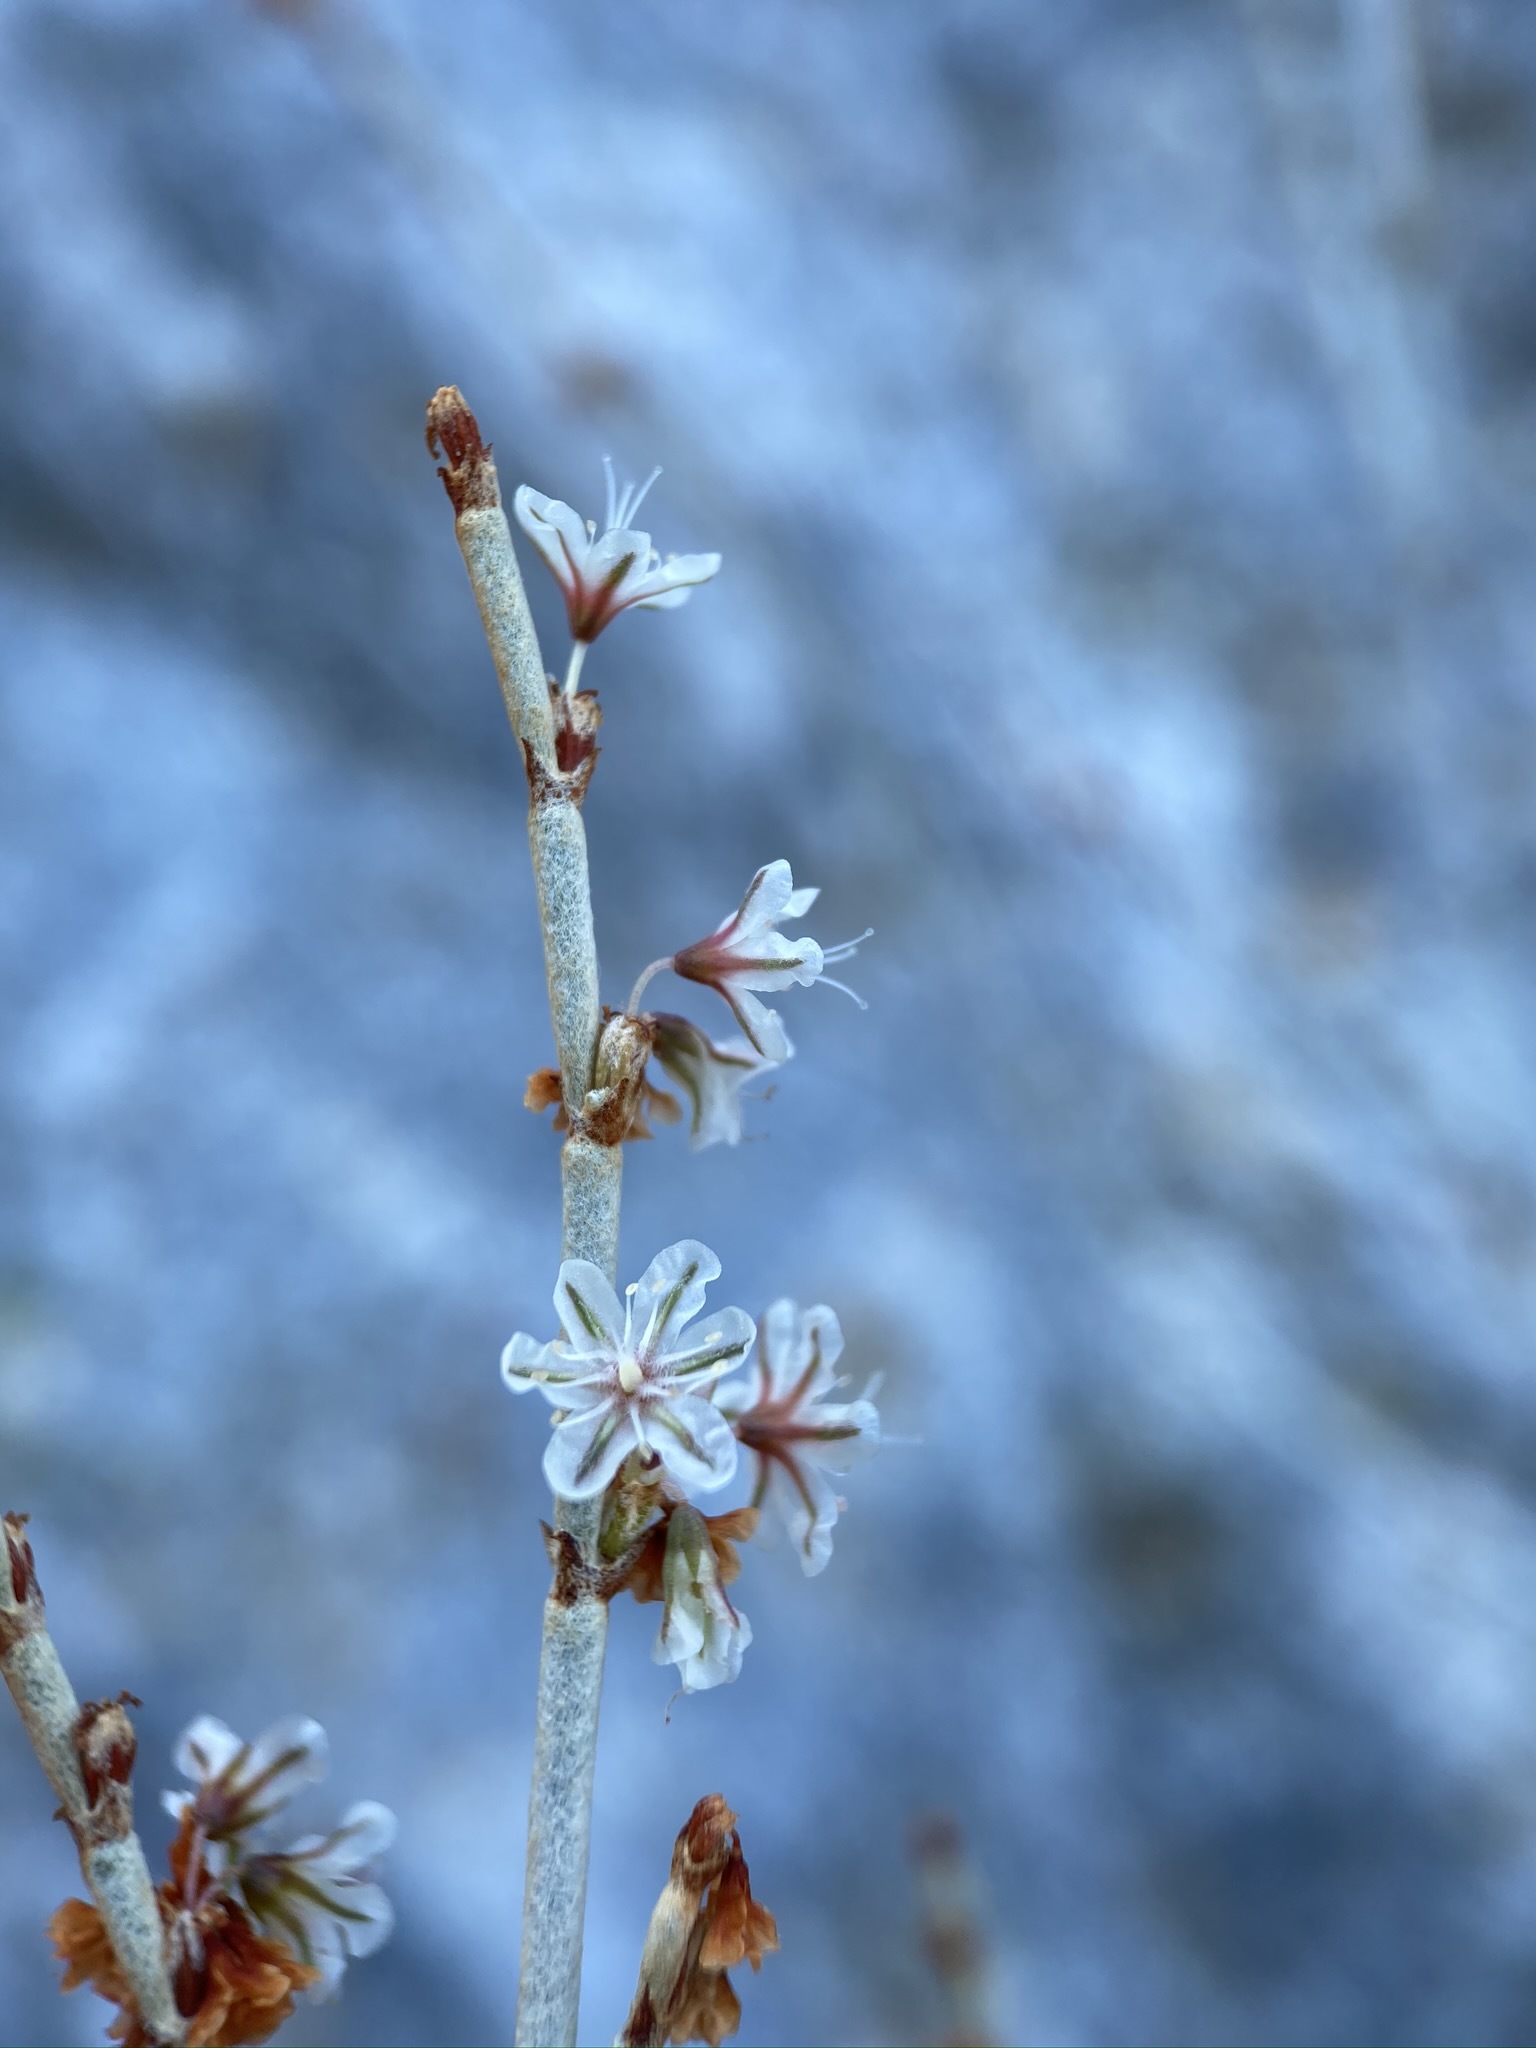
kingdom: Plantae
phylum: Tracheophyta
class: Magnoliopsida
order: Caryophyllales
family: Polygonaceae
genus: Eriogonum
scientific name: Eriogonum wrightii
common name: Bastard-sage
